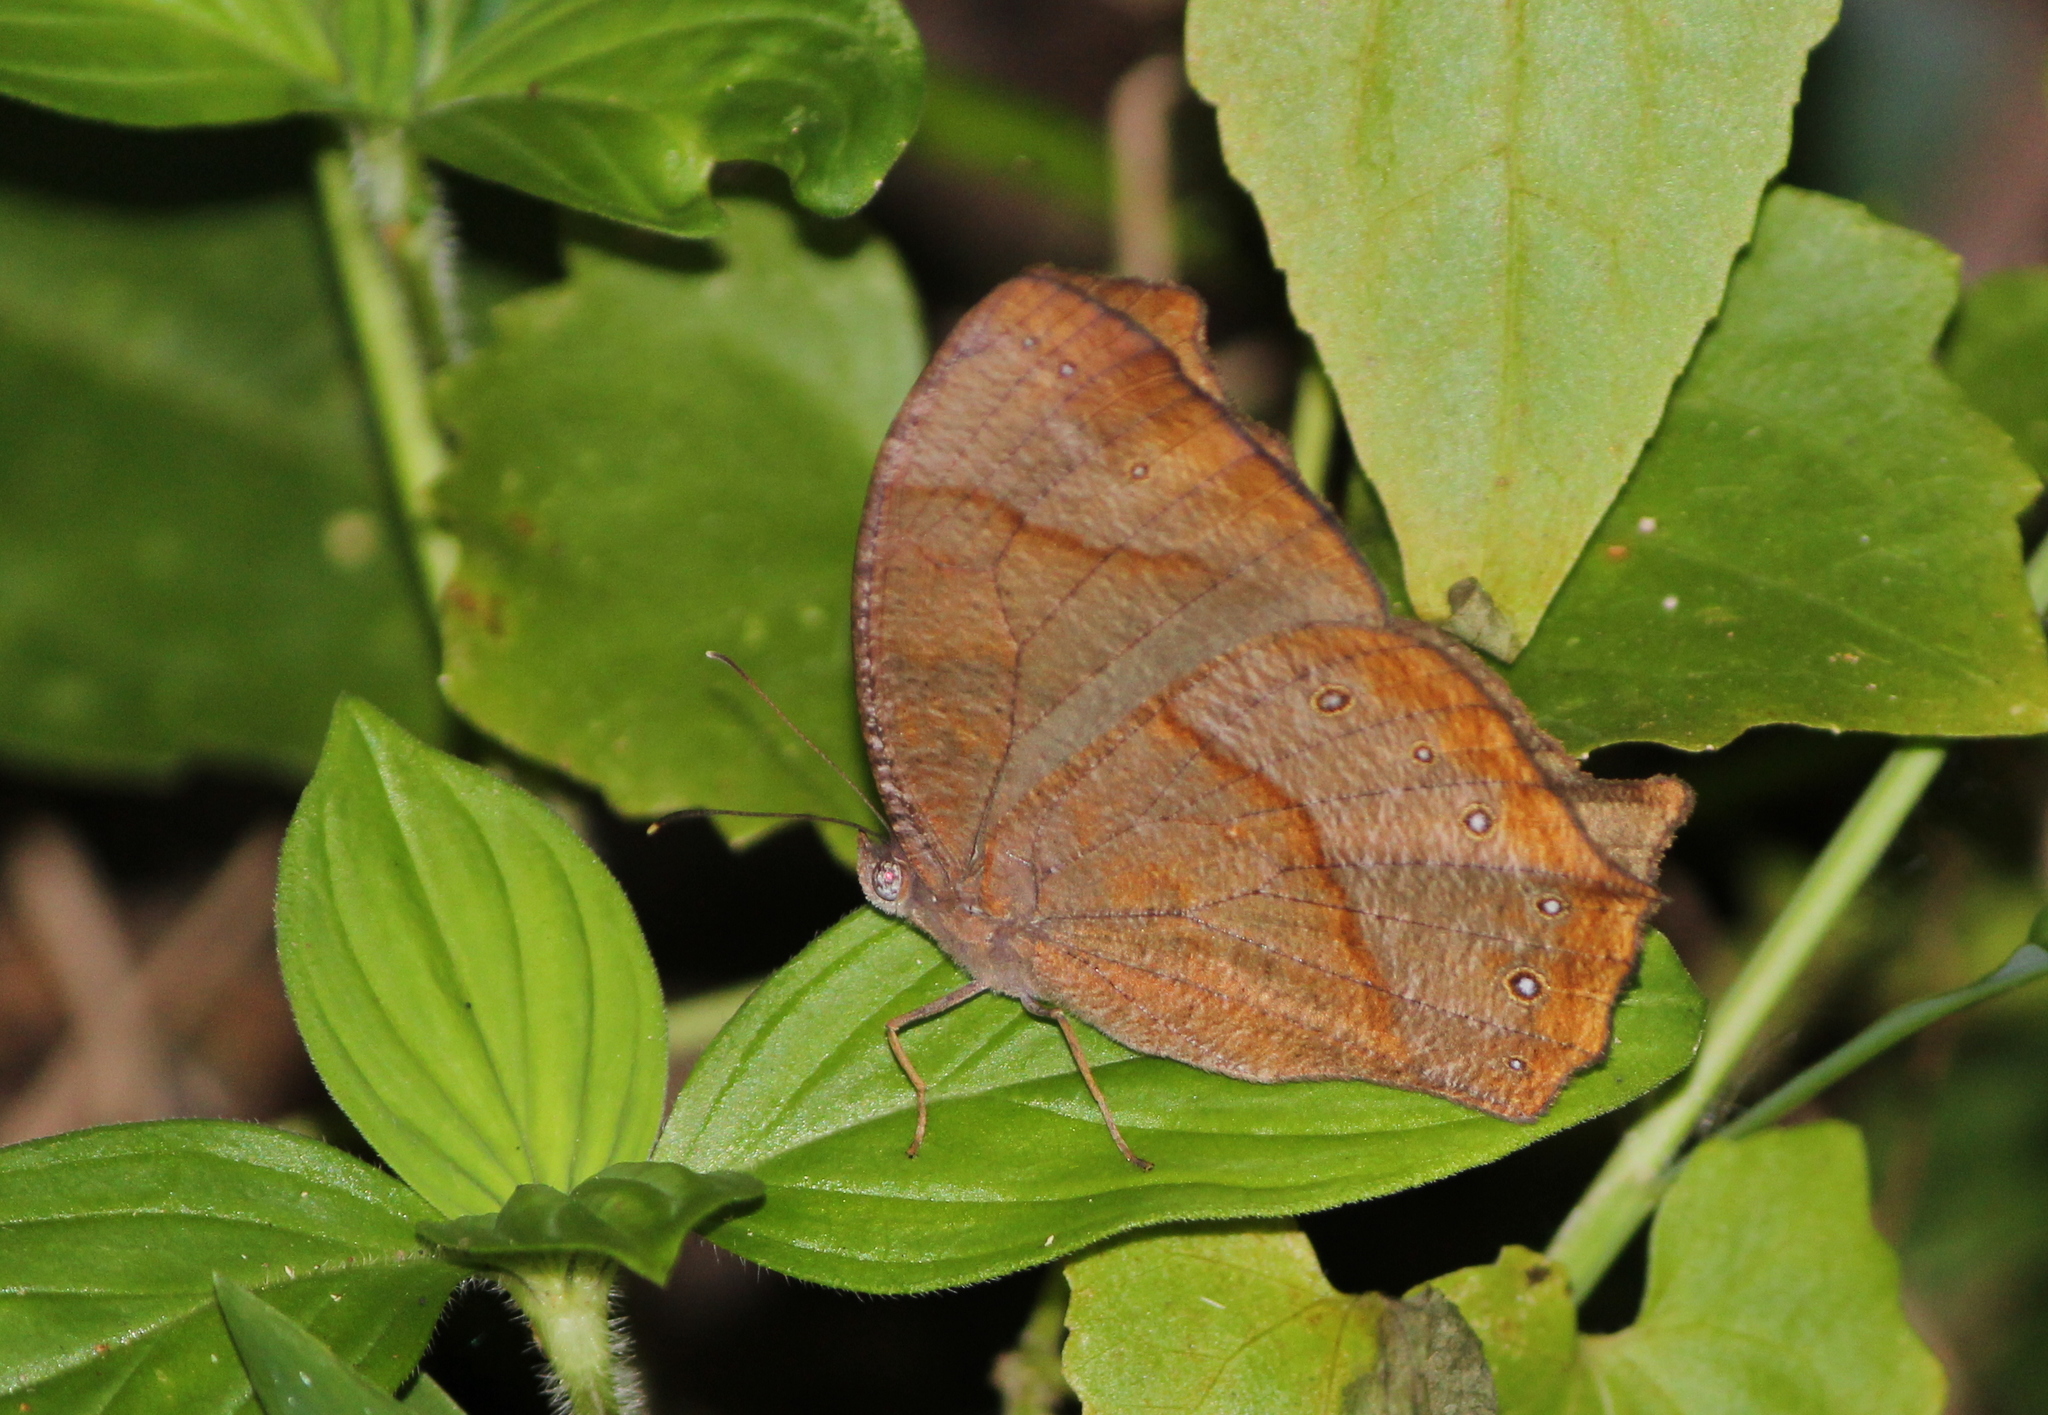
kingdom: Animalia
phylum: Arthropoda
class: Insecta
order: Lepidoptera
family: Nymphalidae
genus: Melanitis
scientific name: Melanitis phedima
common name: Dark evening brown
